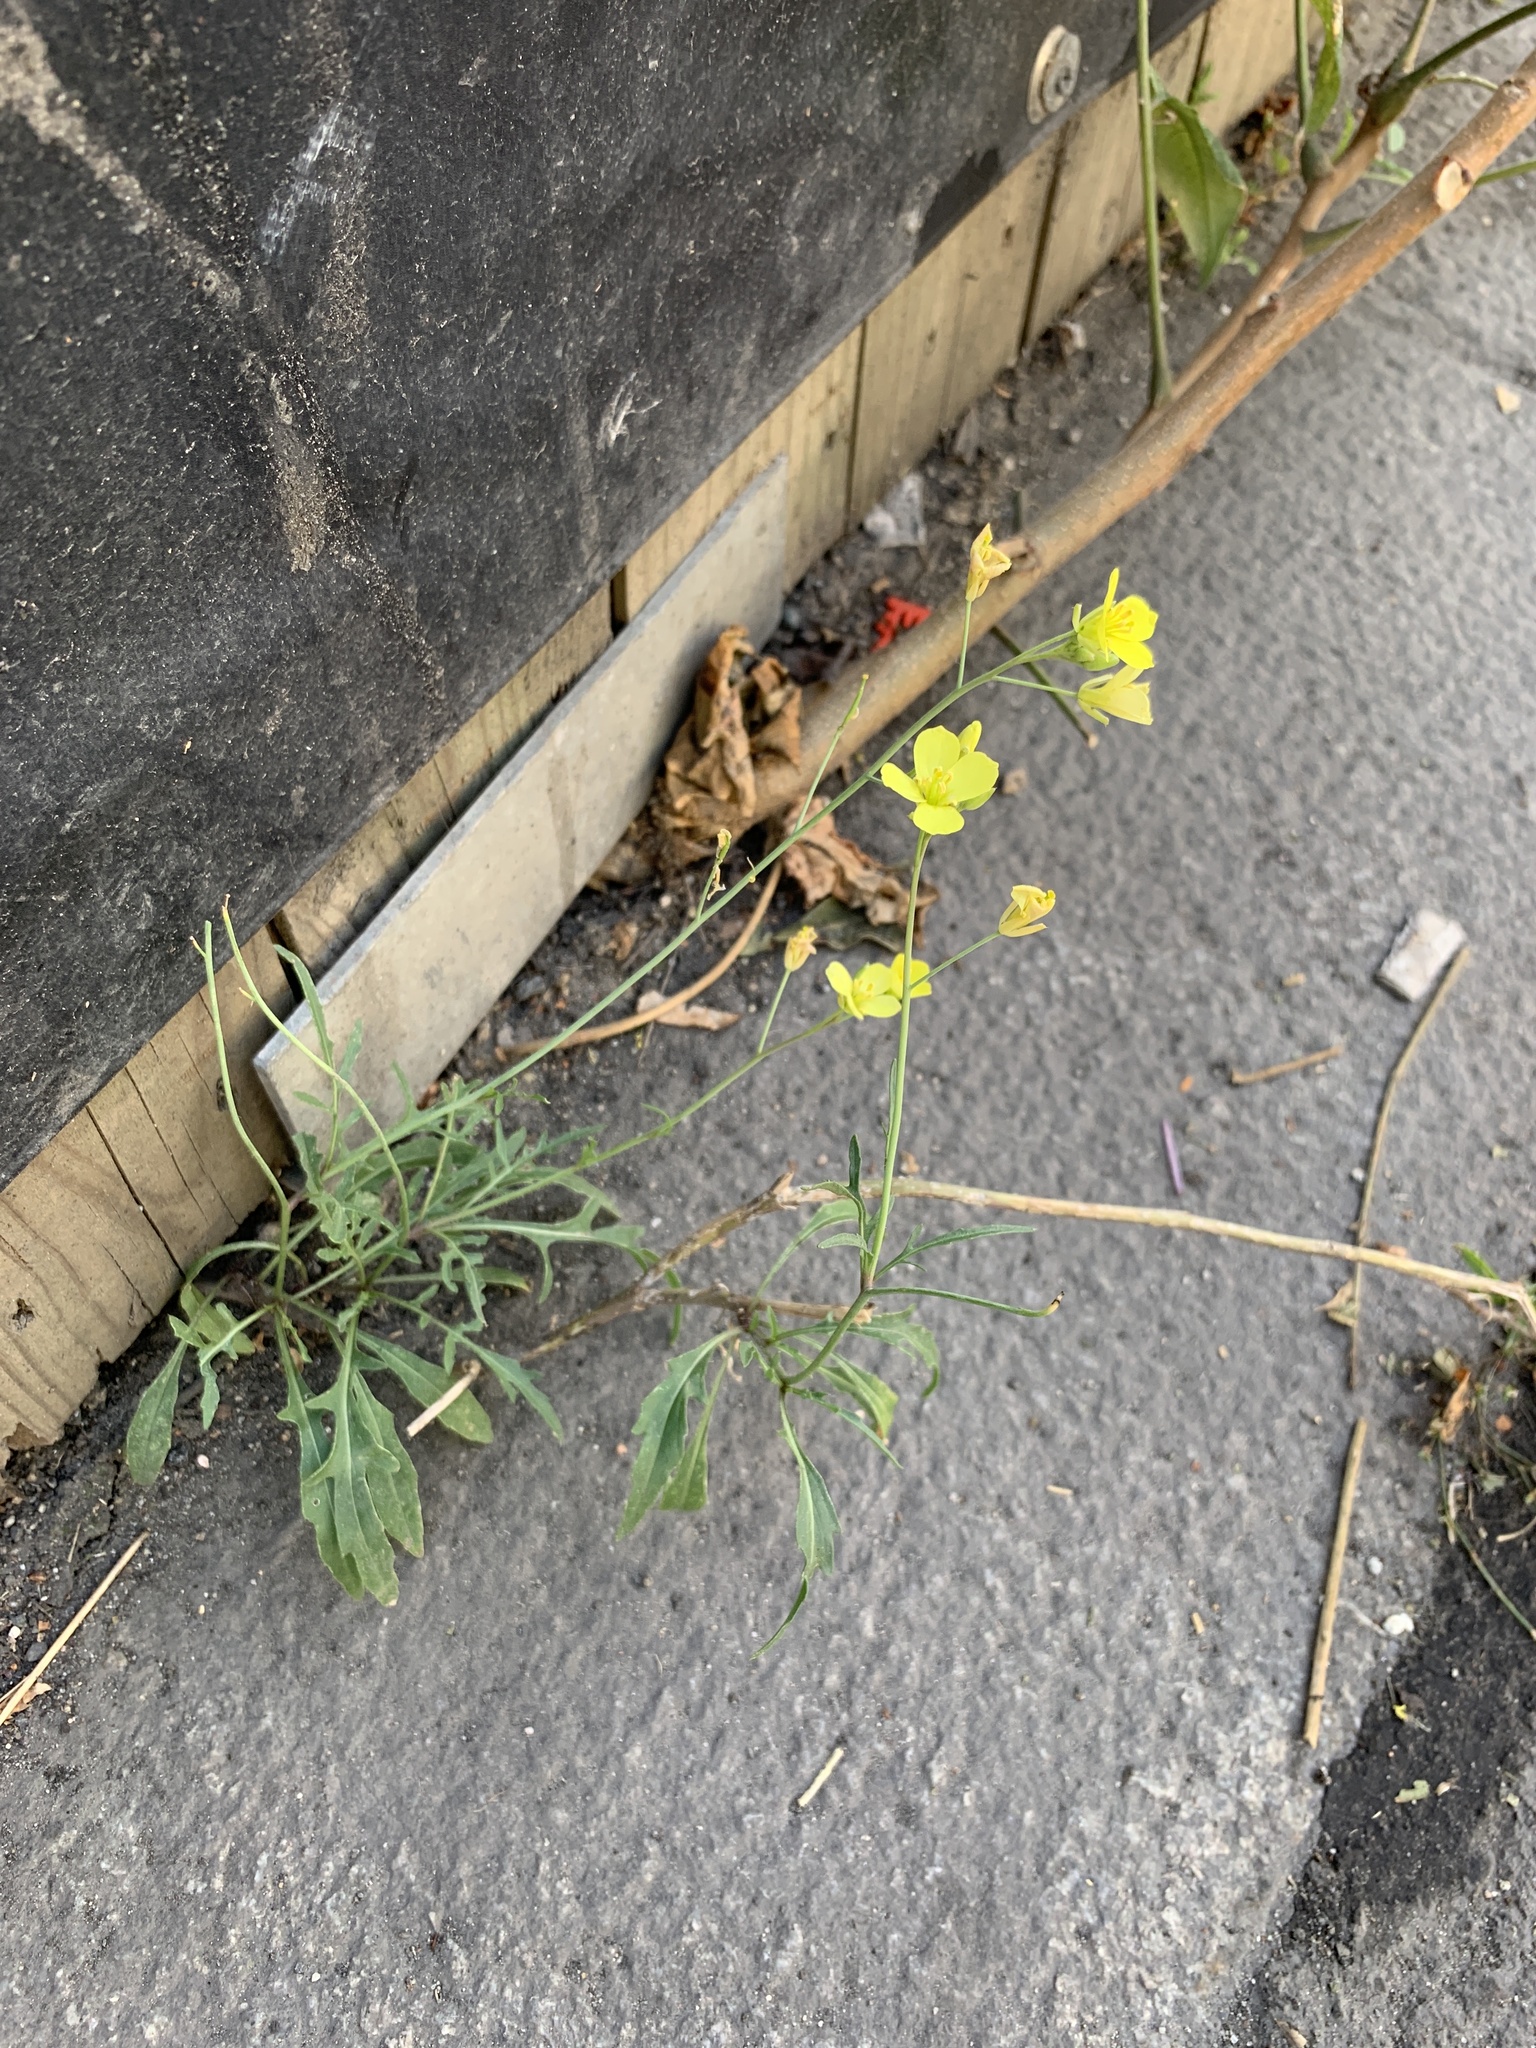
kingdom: Plantae
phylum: Tracheophyta
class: Magnoliopsida
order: Brassicales
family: Brassicaceae
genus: Diplotaxis
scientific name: Diplotaxis muralis
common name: Annual wall-rocket
